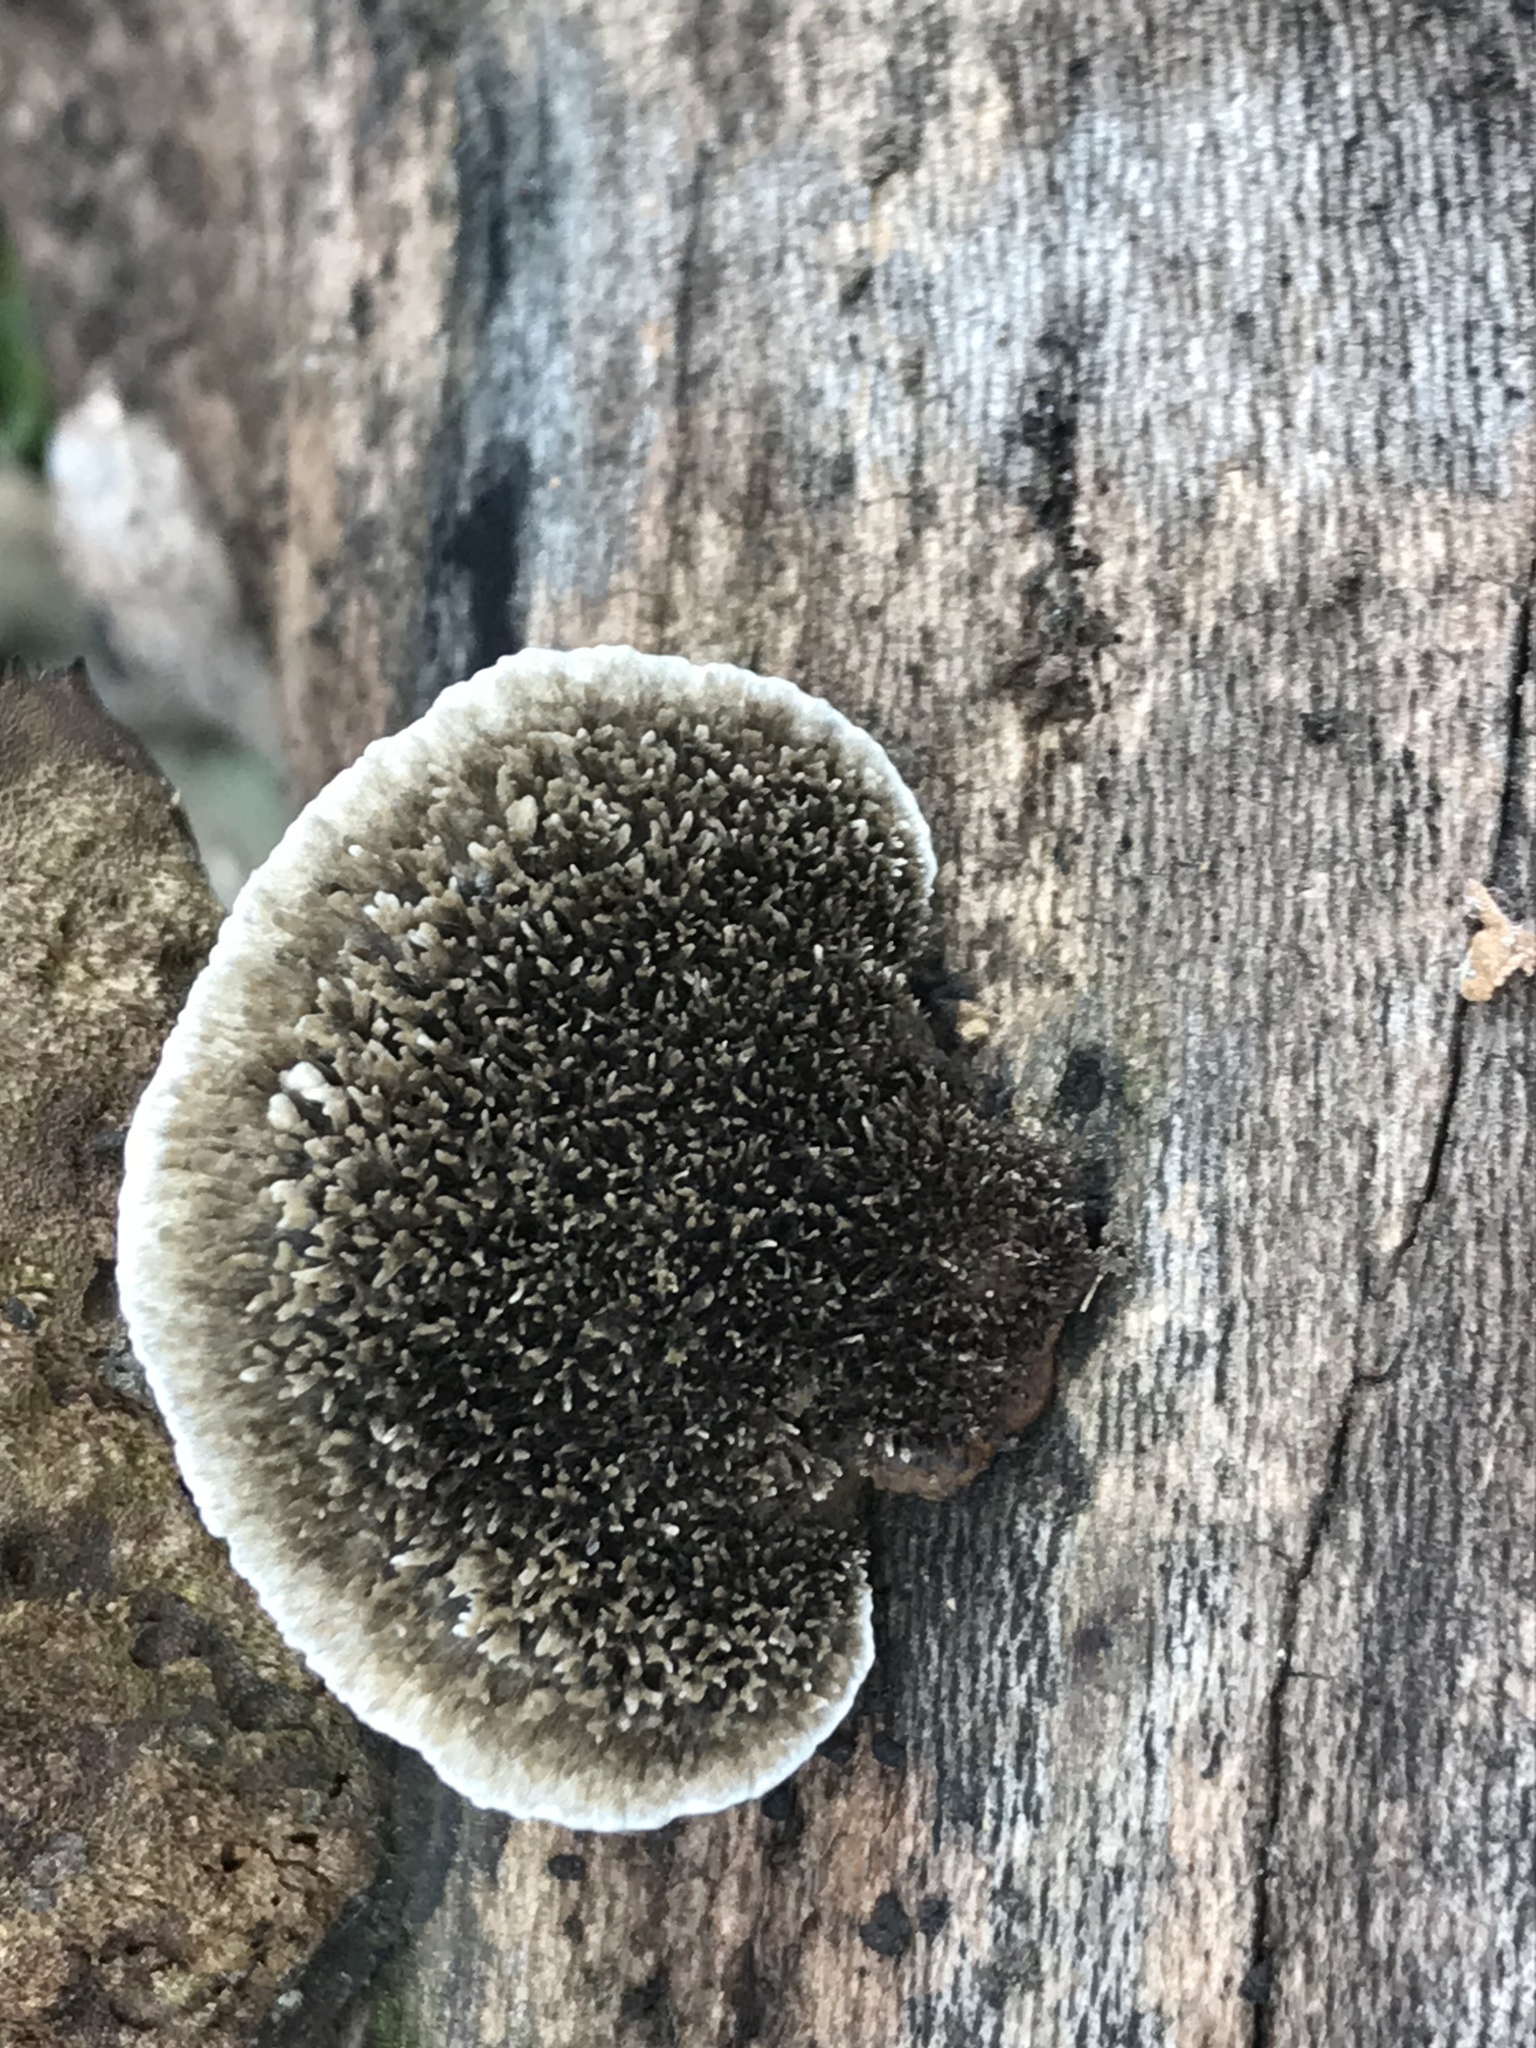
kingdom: Fungi
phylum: Basidiomycota
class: Agaricomycetes
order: Polyporales
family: Cerrenaceae
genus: Cerrena
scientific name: Cerrena hydnoides
